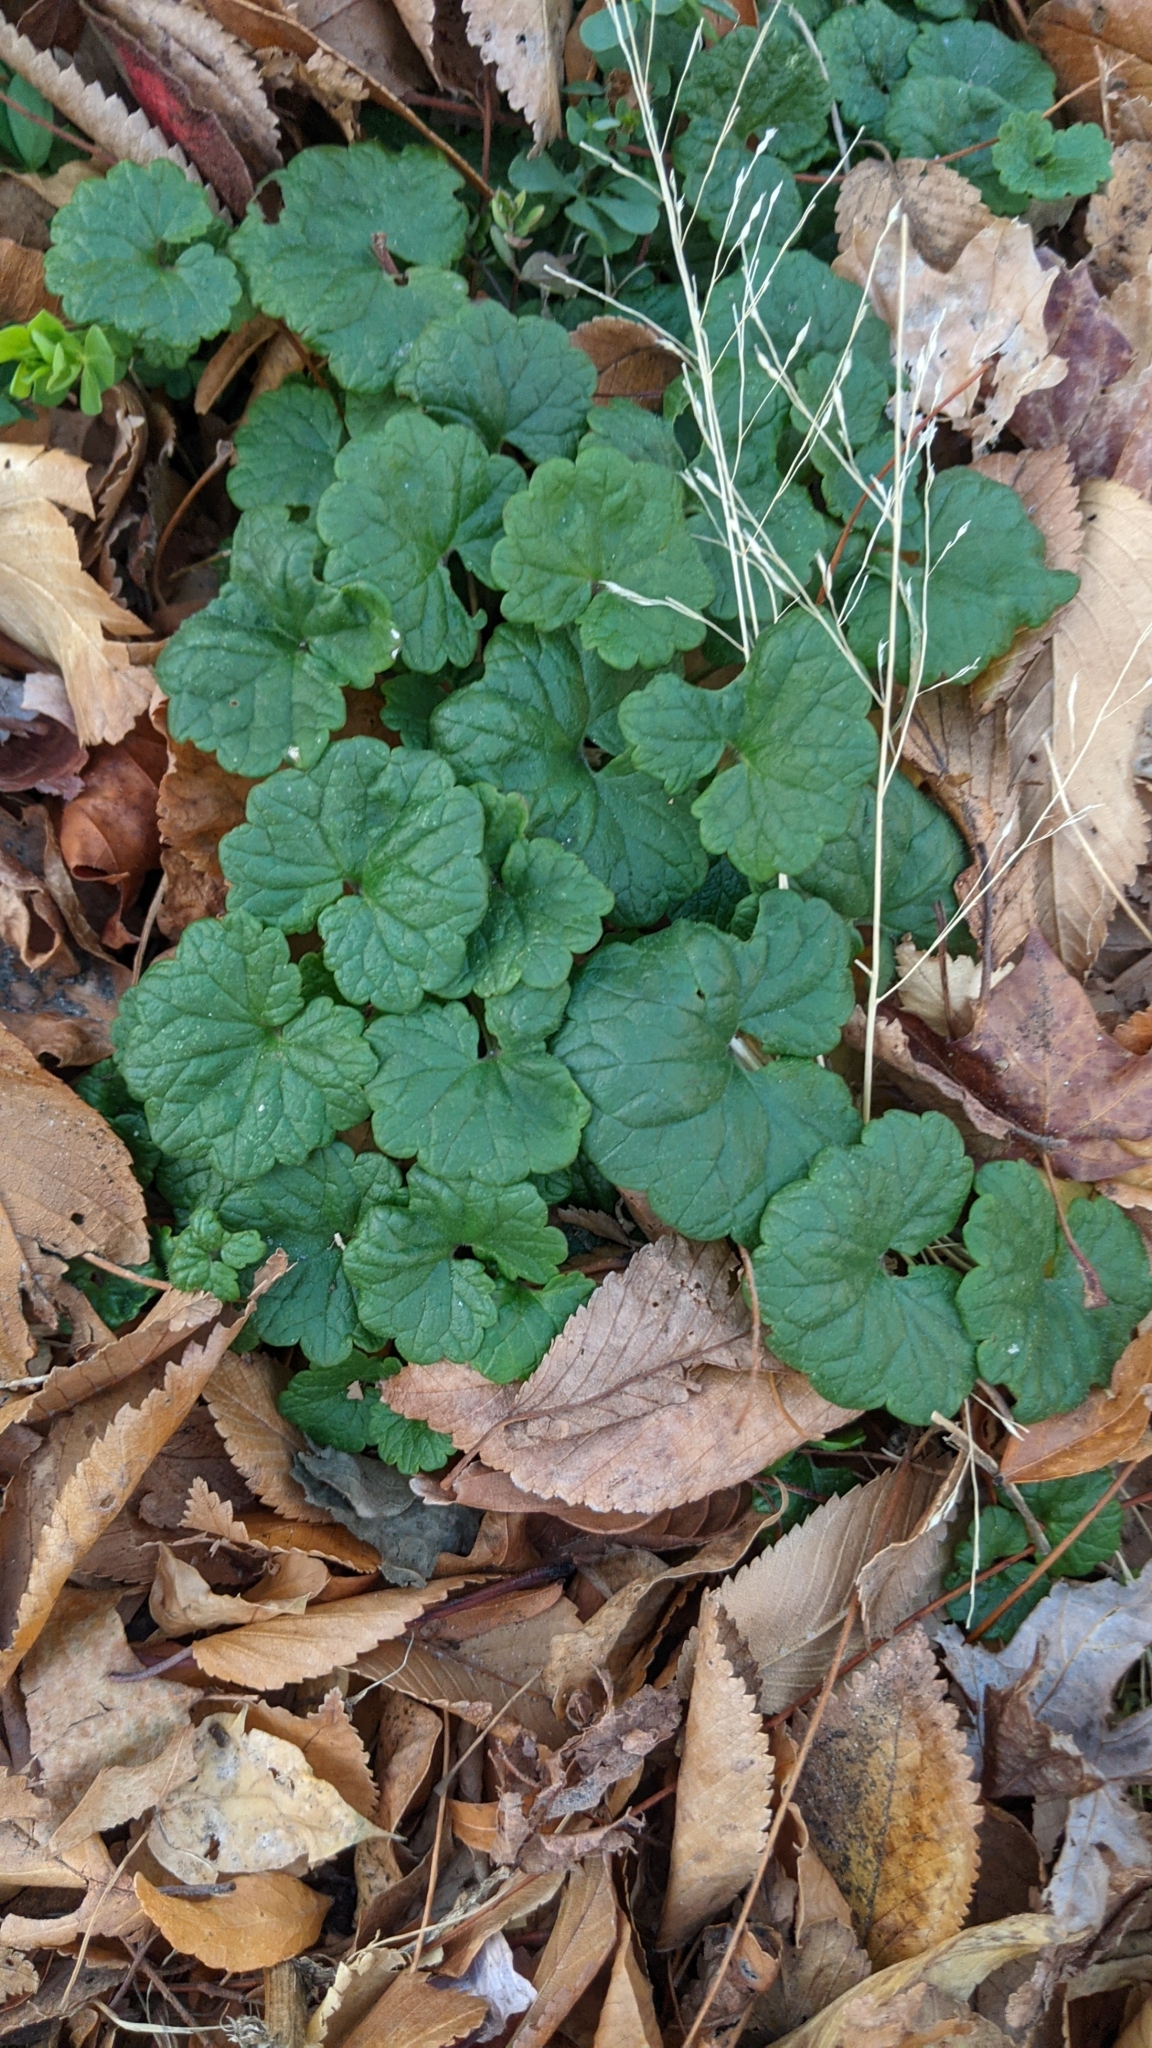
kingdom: Plantae
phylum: Tracheophyta
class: Magnoliopsida
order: Lamiales
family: Lamiaceae
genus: Glechoma
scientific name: Glechoma hederacea
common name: Ground ivy
